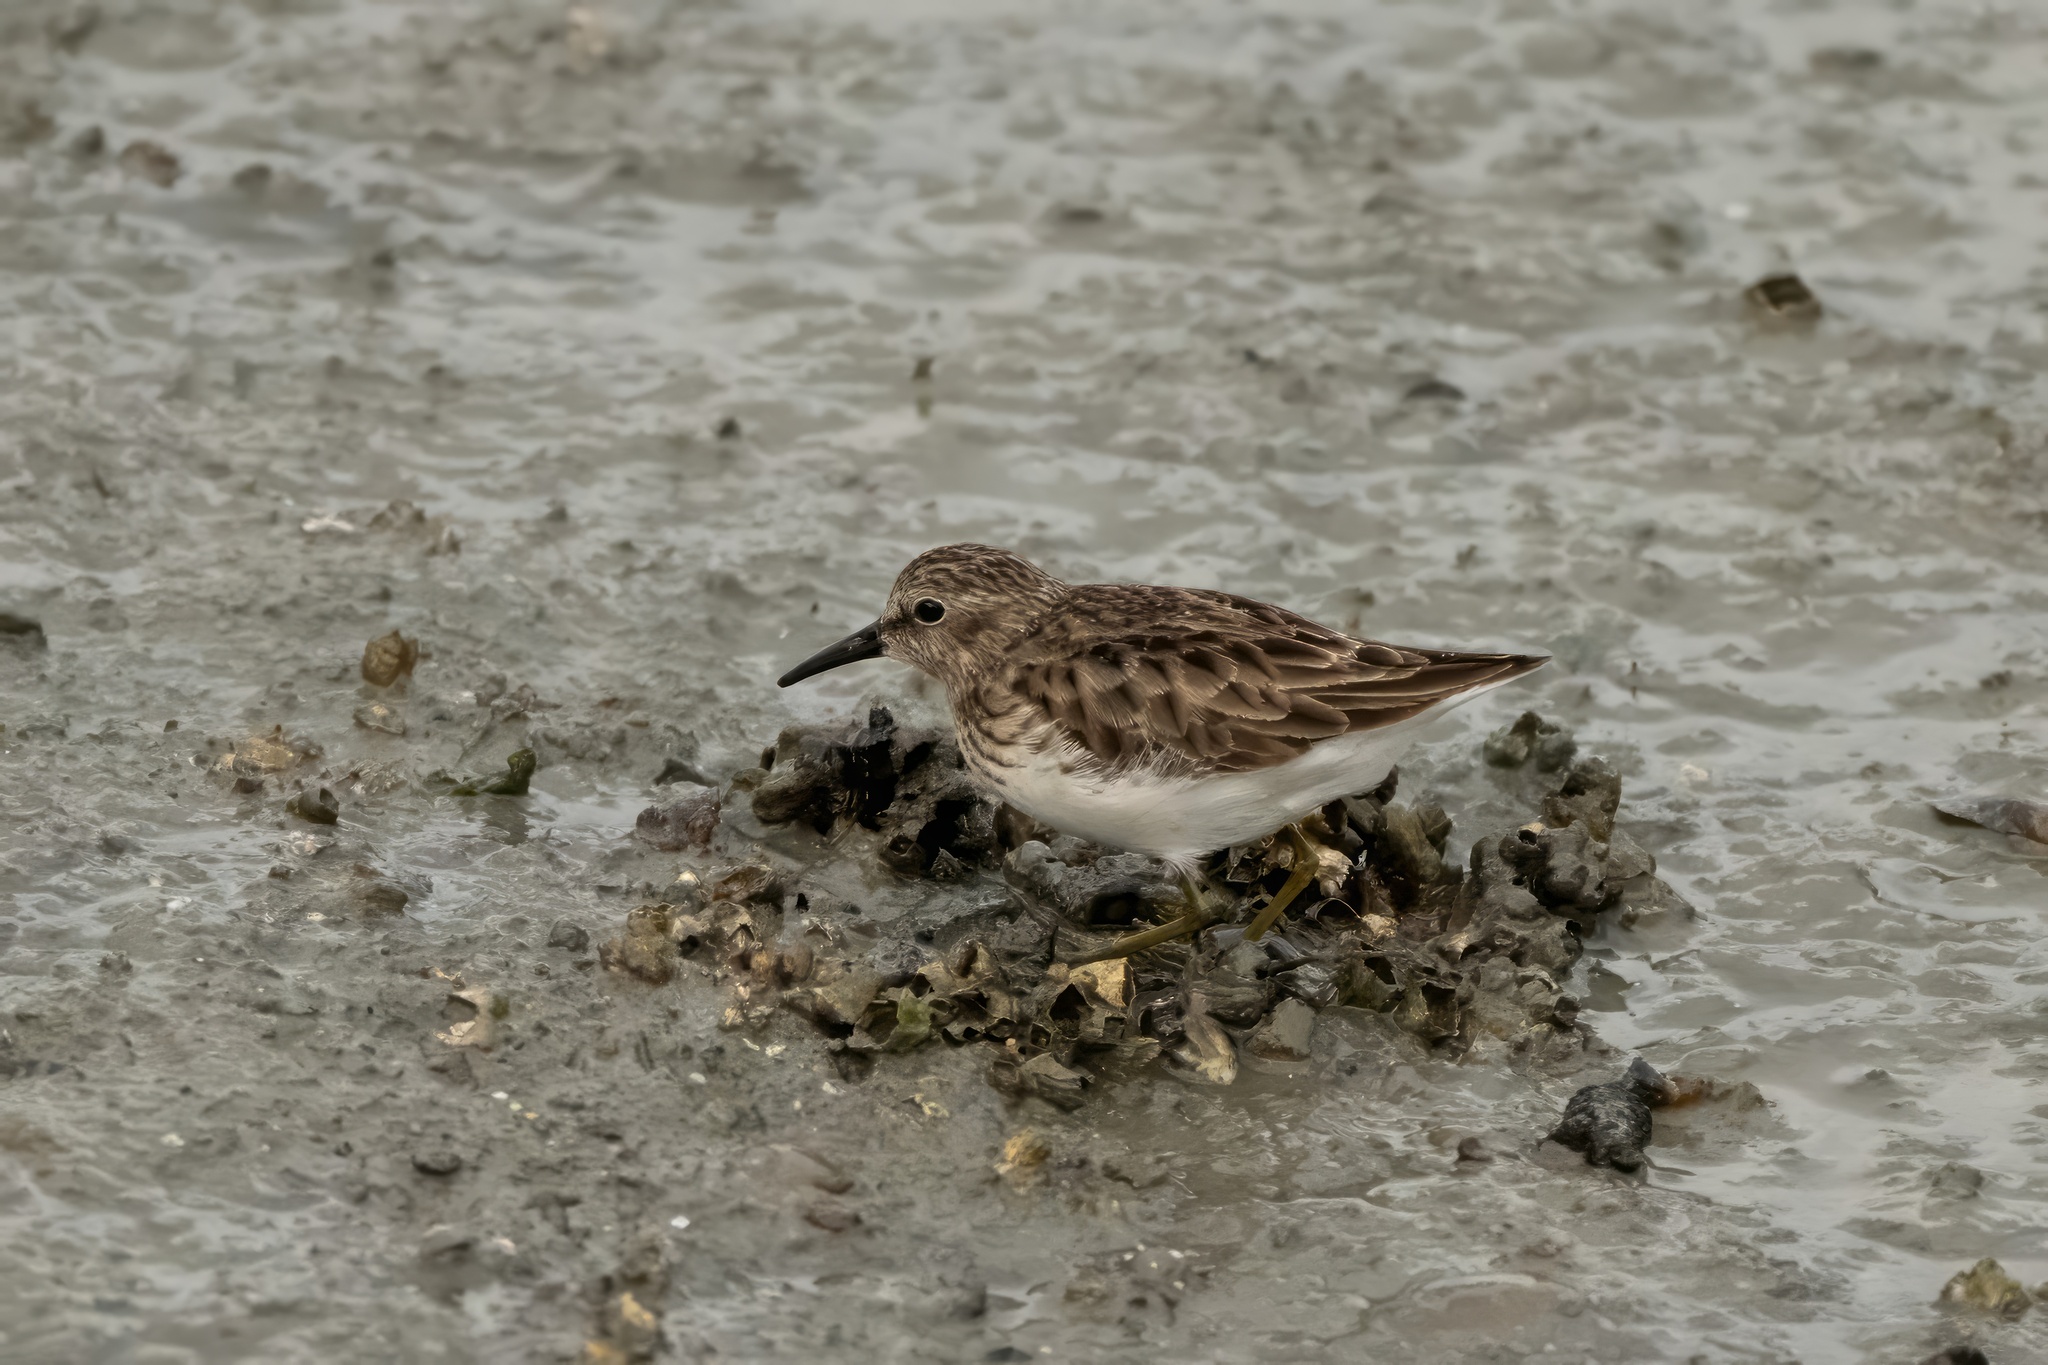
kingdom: Animalia
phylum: Chordata
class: Aves
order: Charadriiformes
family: Scolopacidae
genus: Calidris
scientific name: Calidris minutilla
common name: Least sandpiper
